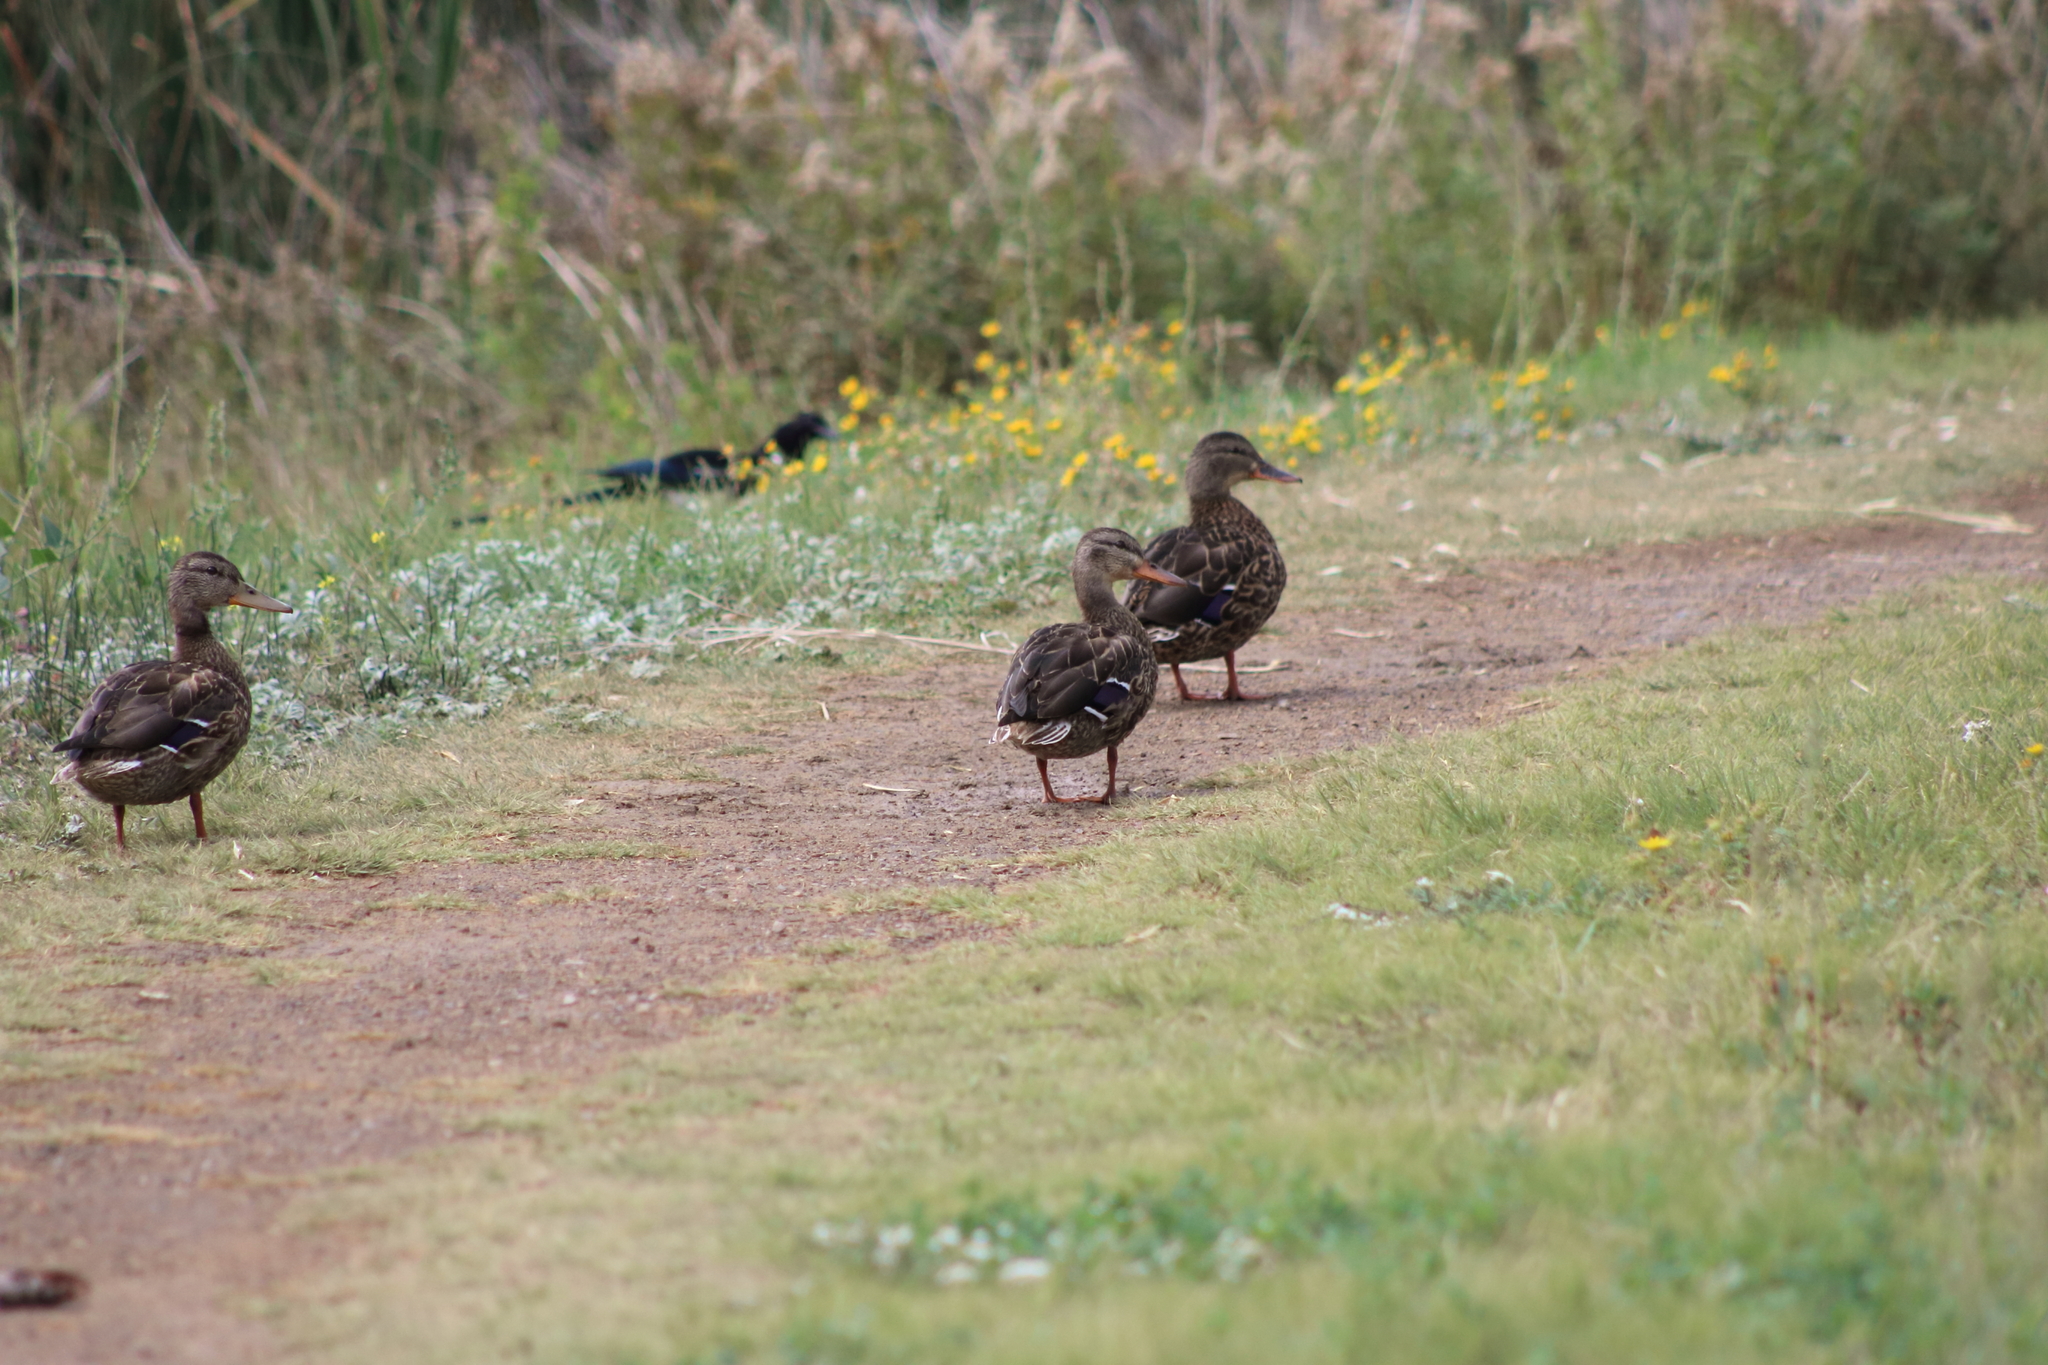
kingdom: Animalia
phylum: Chordata
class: Aves
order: Anseriformes
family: Anatidae
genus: Anas
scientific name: Anas platyrhynchos
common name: Mallard
